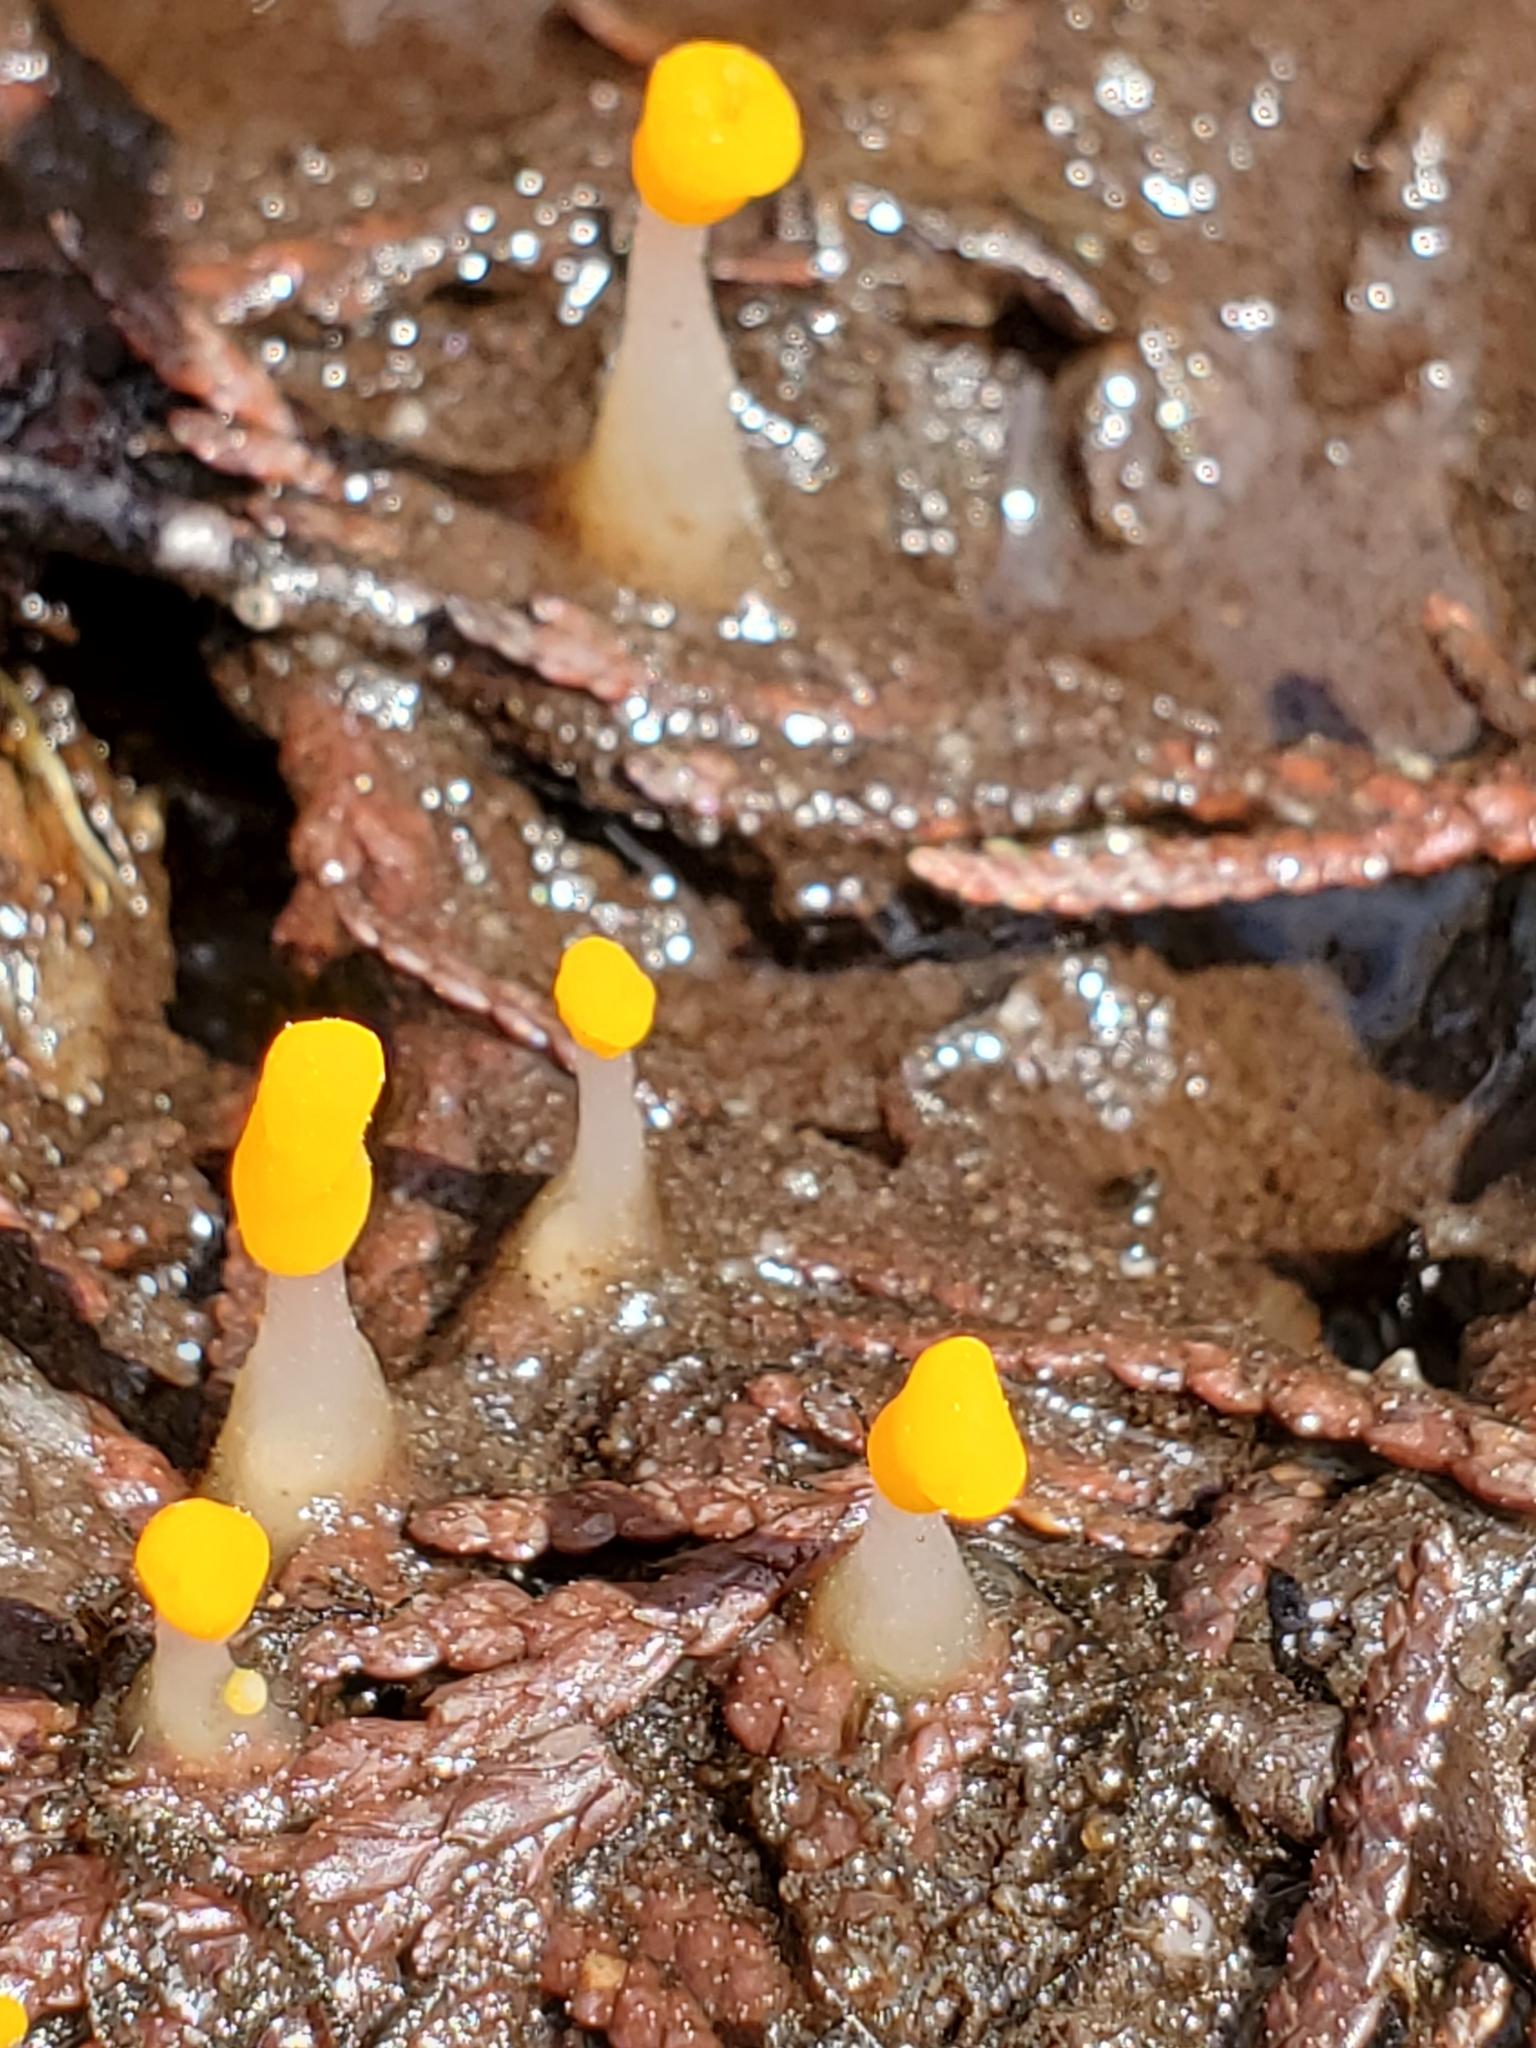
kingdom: Fungi
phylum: Ascomycota
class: Leotiomycetes
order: Helotiales
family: Sclerotiniaceae
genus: Mitrula
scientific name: Mitrula elegans
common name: Swamp beacon
